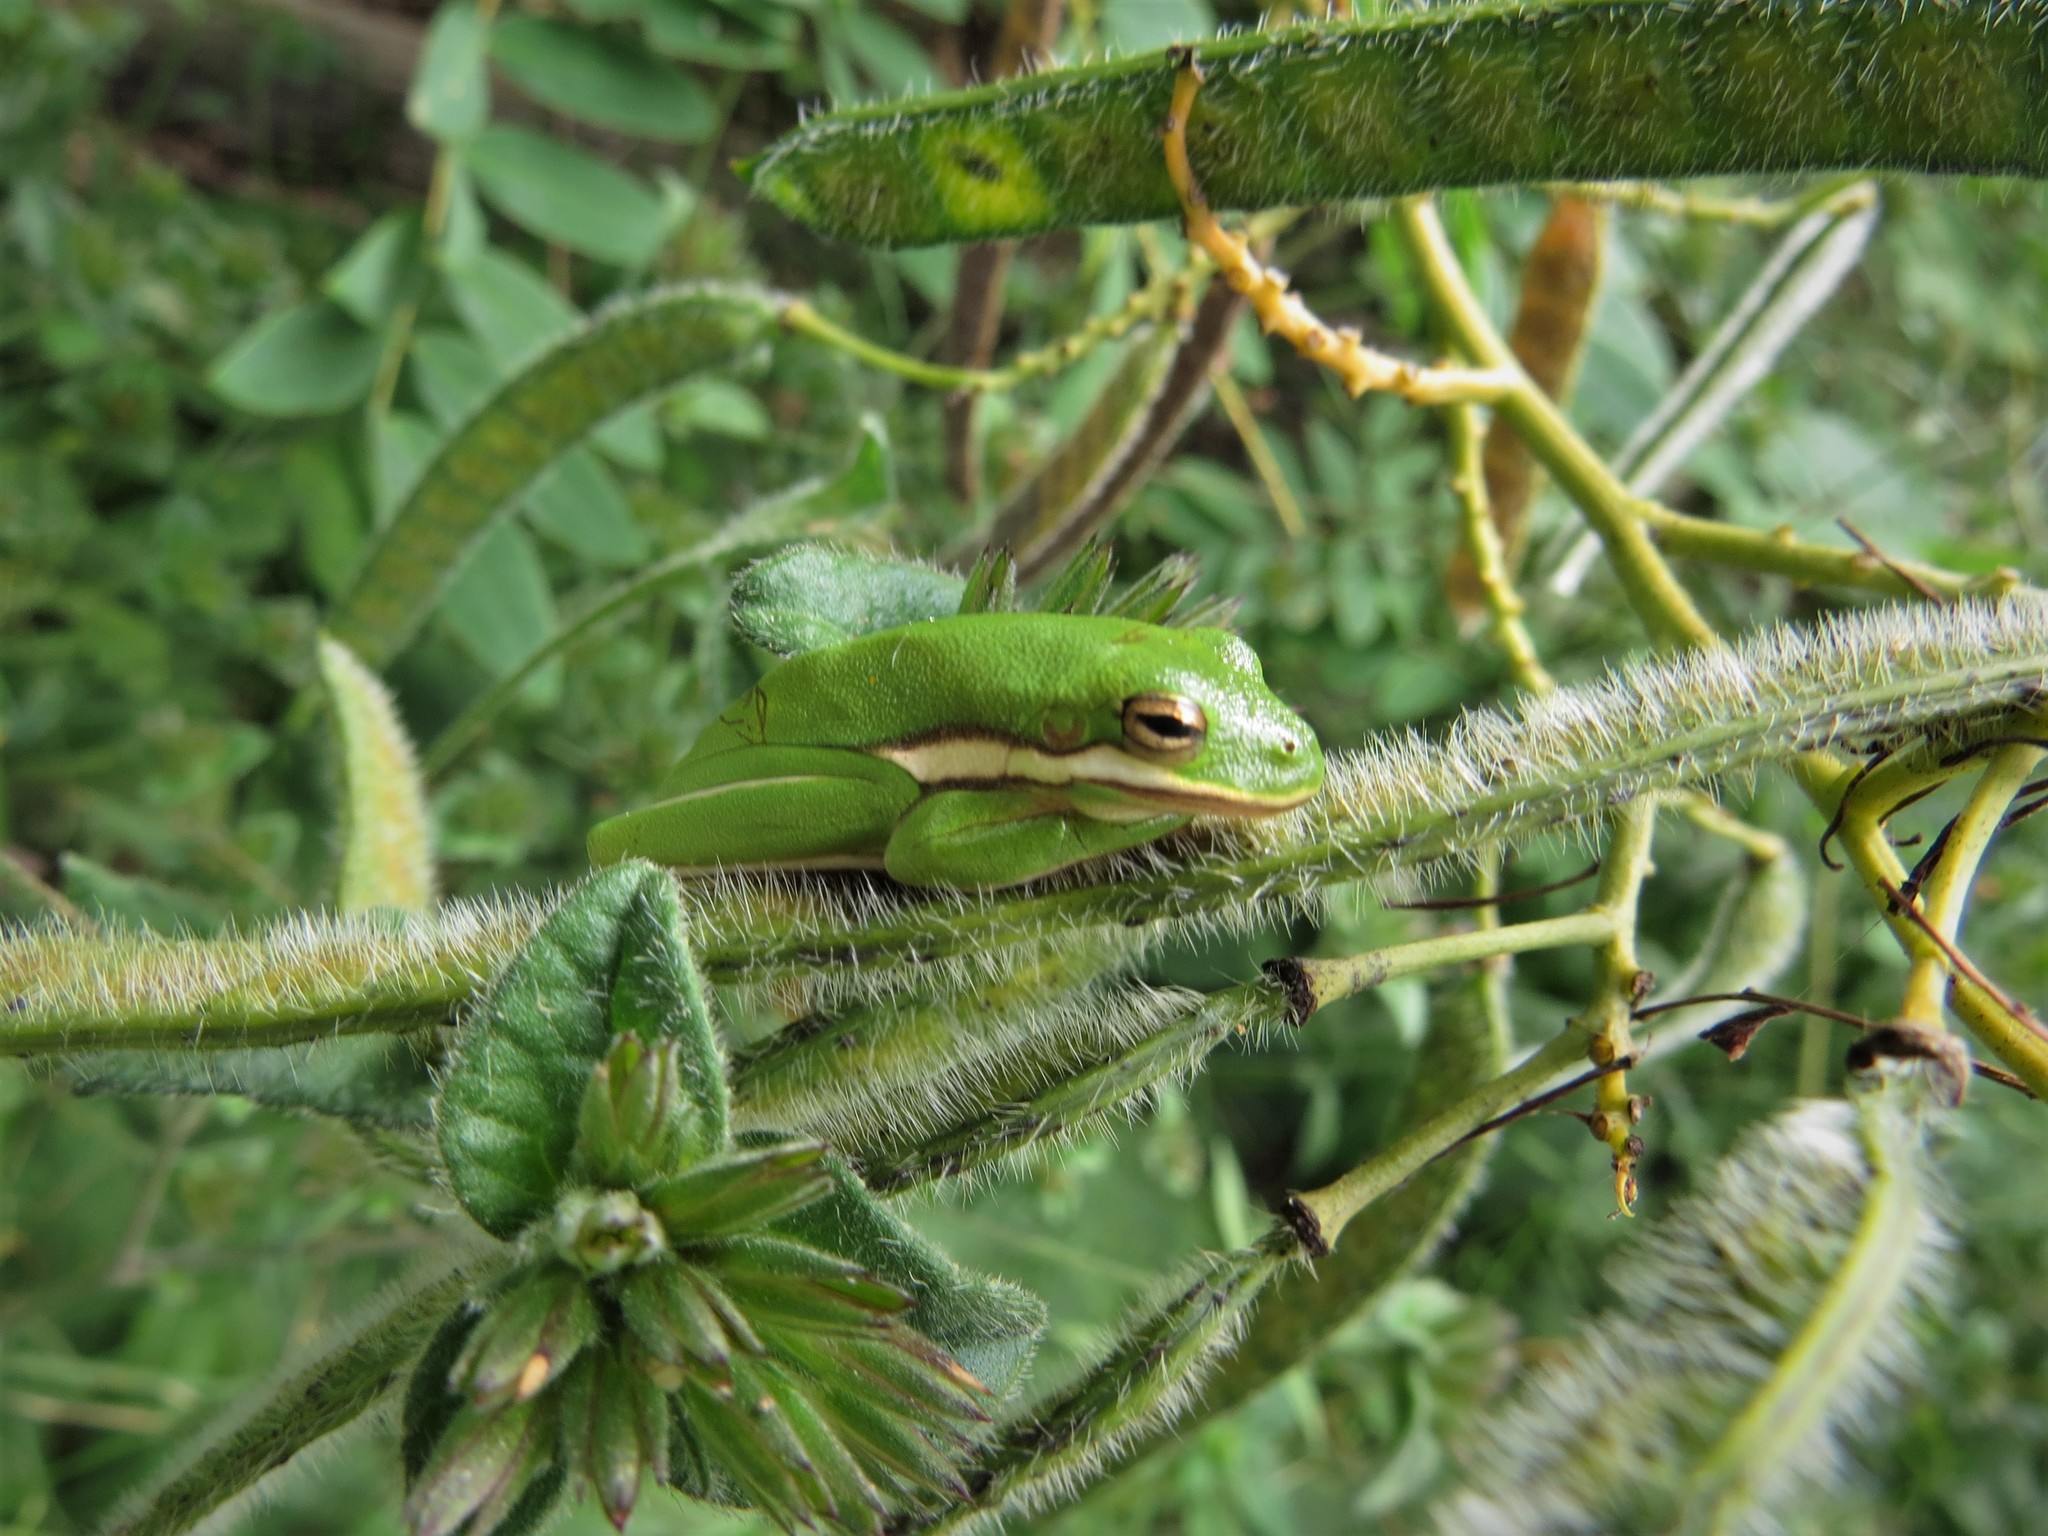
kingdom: Animalia
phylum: Chordata
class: Amphibia
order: Anura
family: Hylidae
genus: Dryophytes
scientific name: Dryophytes cinereus
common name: Green treefrog
